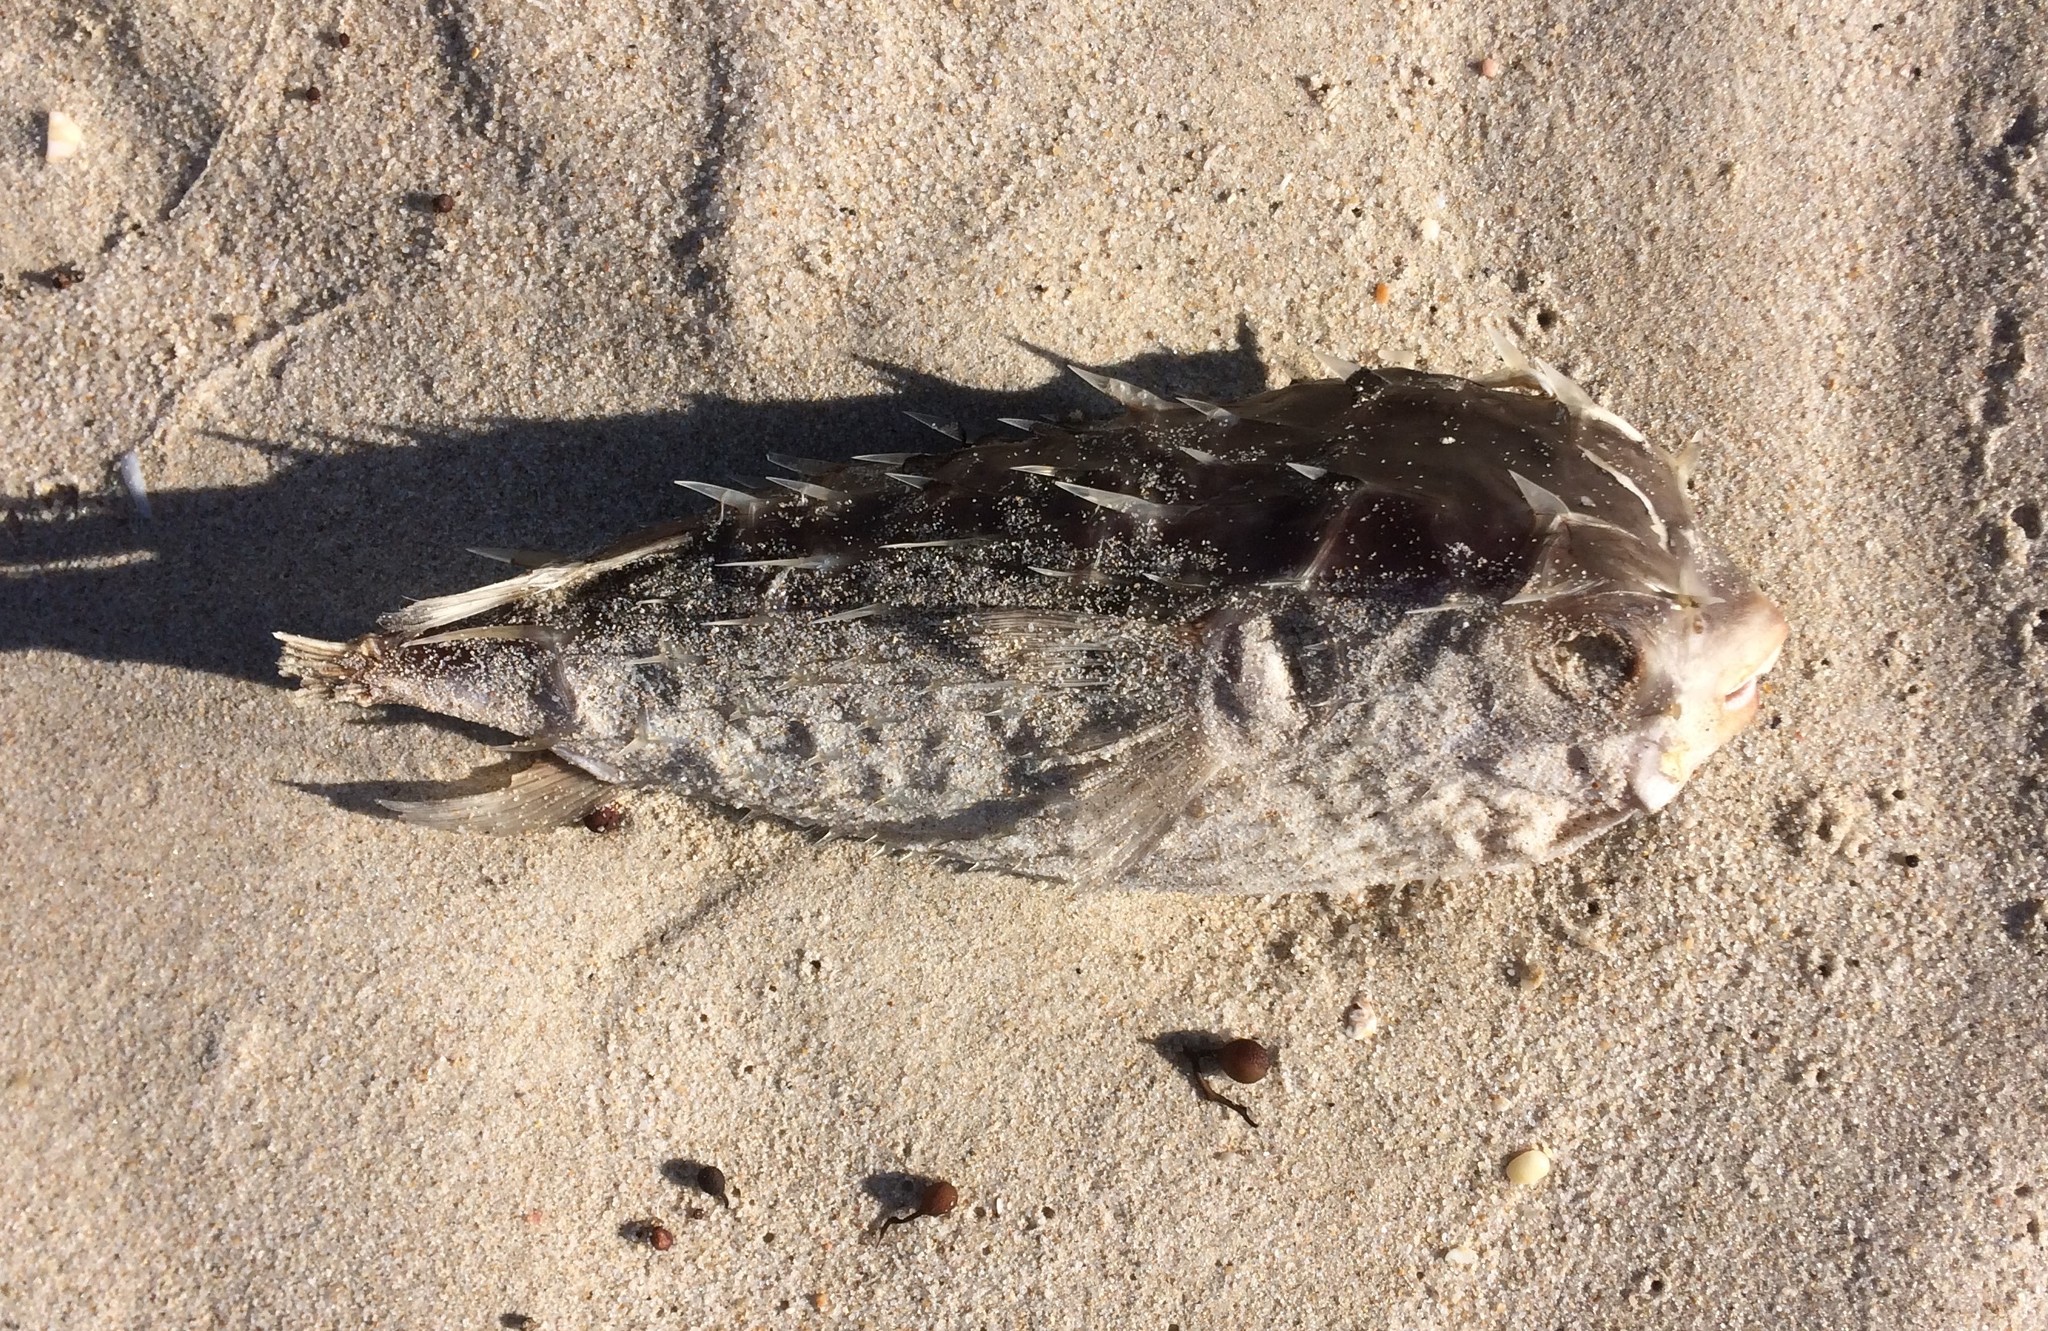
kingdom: Animalia
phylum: Chordata
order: Tetraodontiformes
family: Diodontidae
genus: Allomycterus
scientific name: Allomycterus pilatus
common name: No common name
